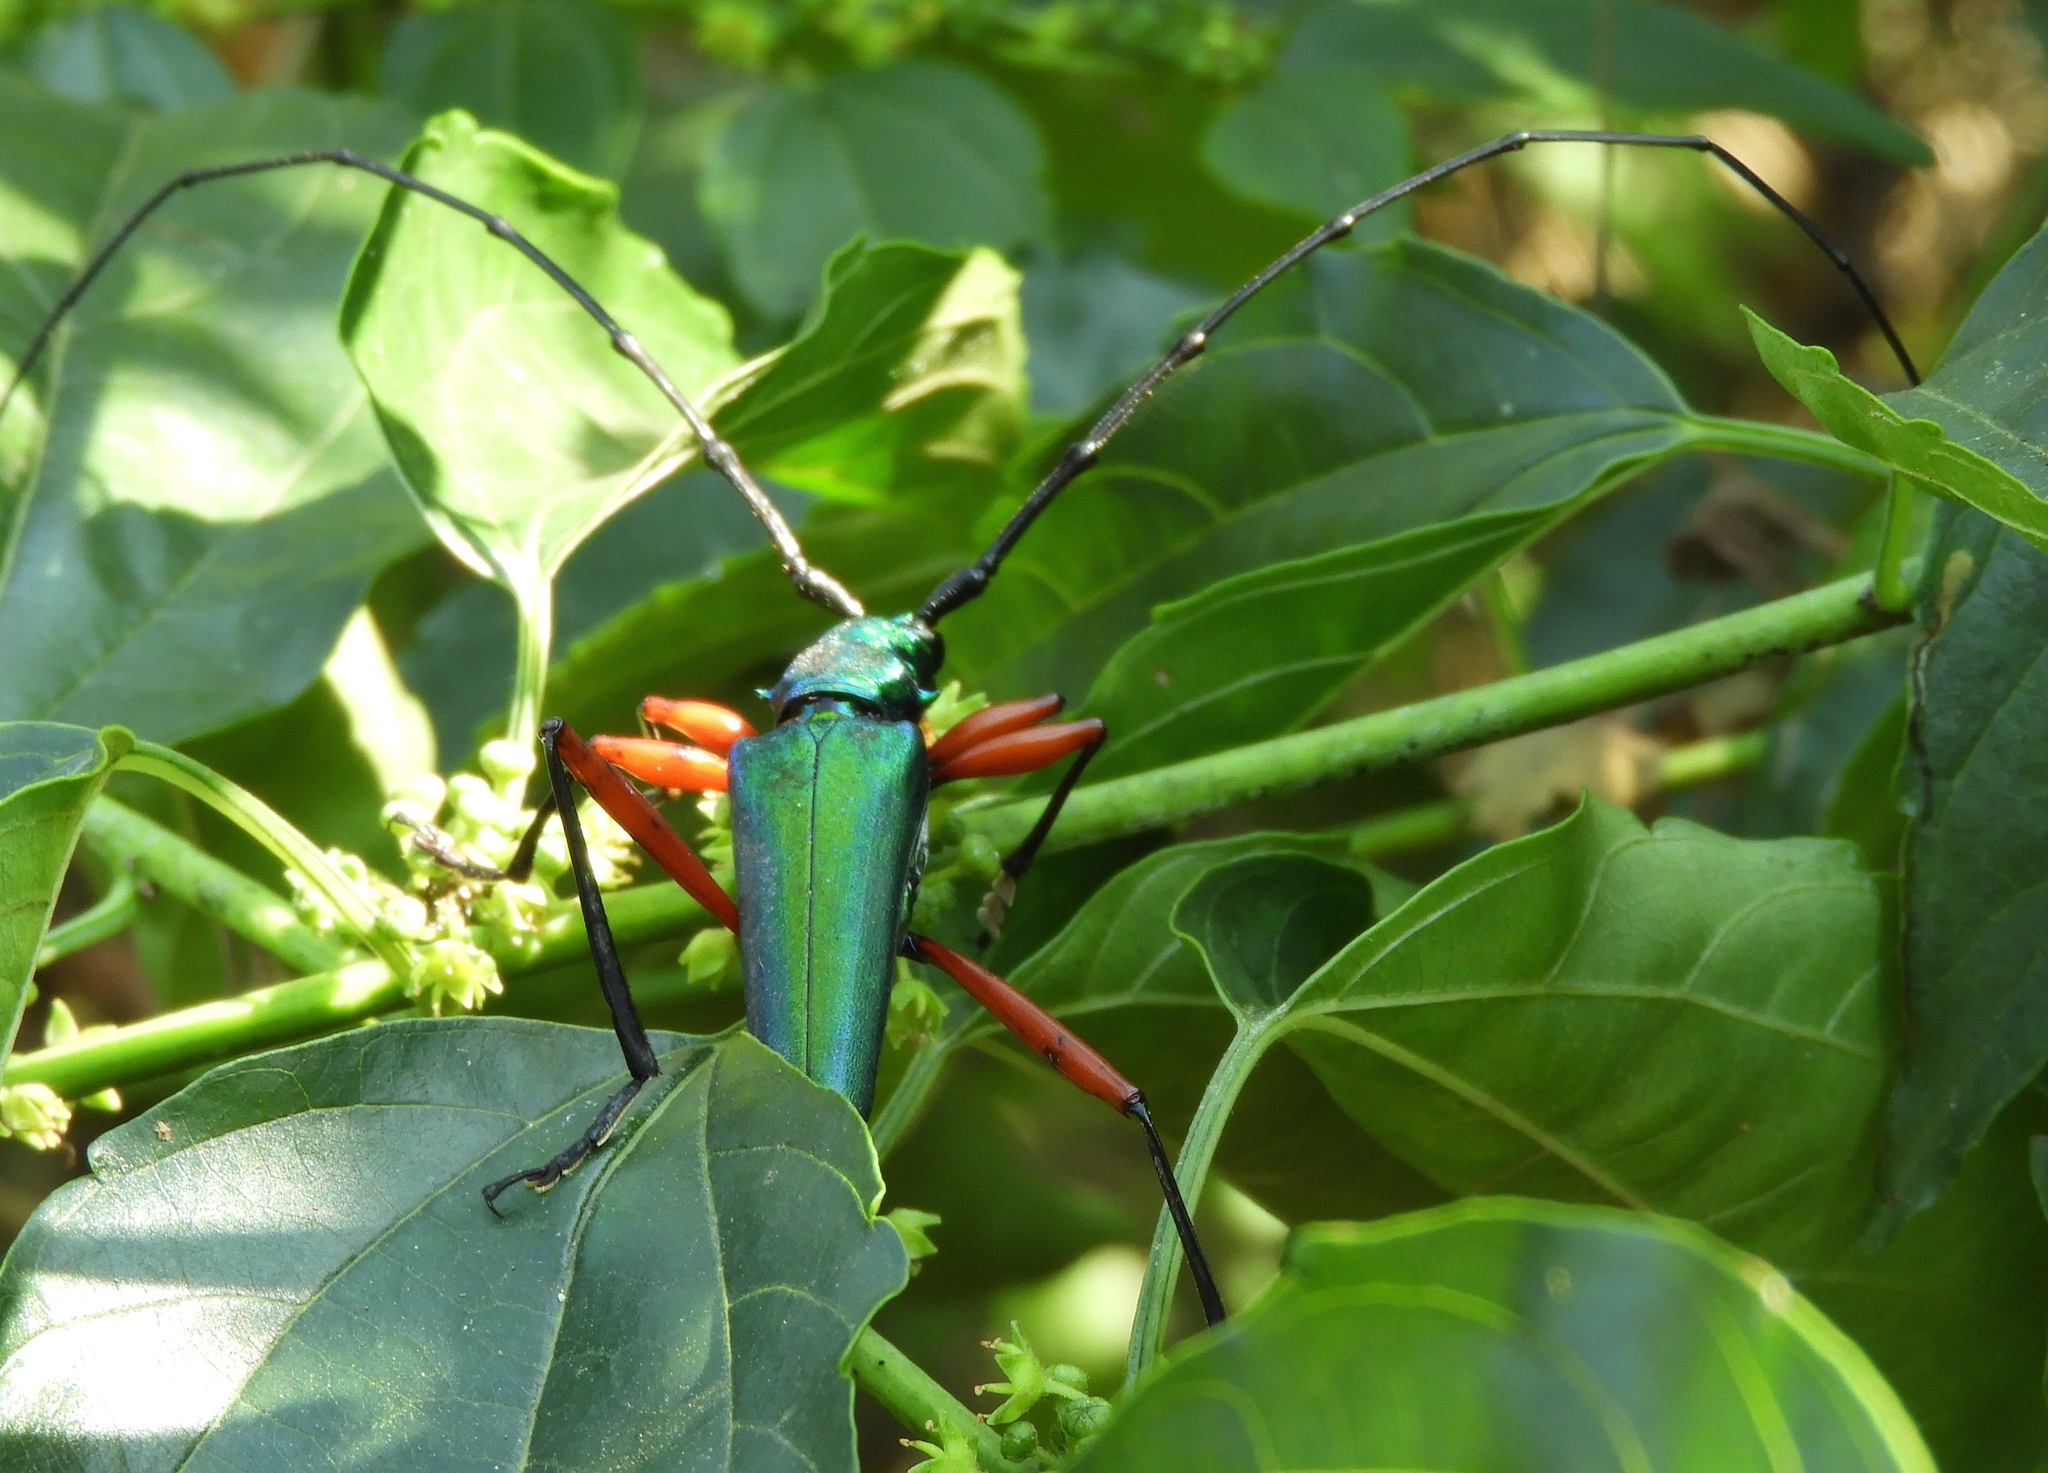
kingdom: Animalia
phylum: Arthropoda
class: Insecta
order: Coleoptera
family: Cerambycidae
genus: Plinthocoelium
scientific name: Plinthocoelium chilensis
